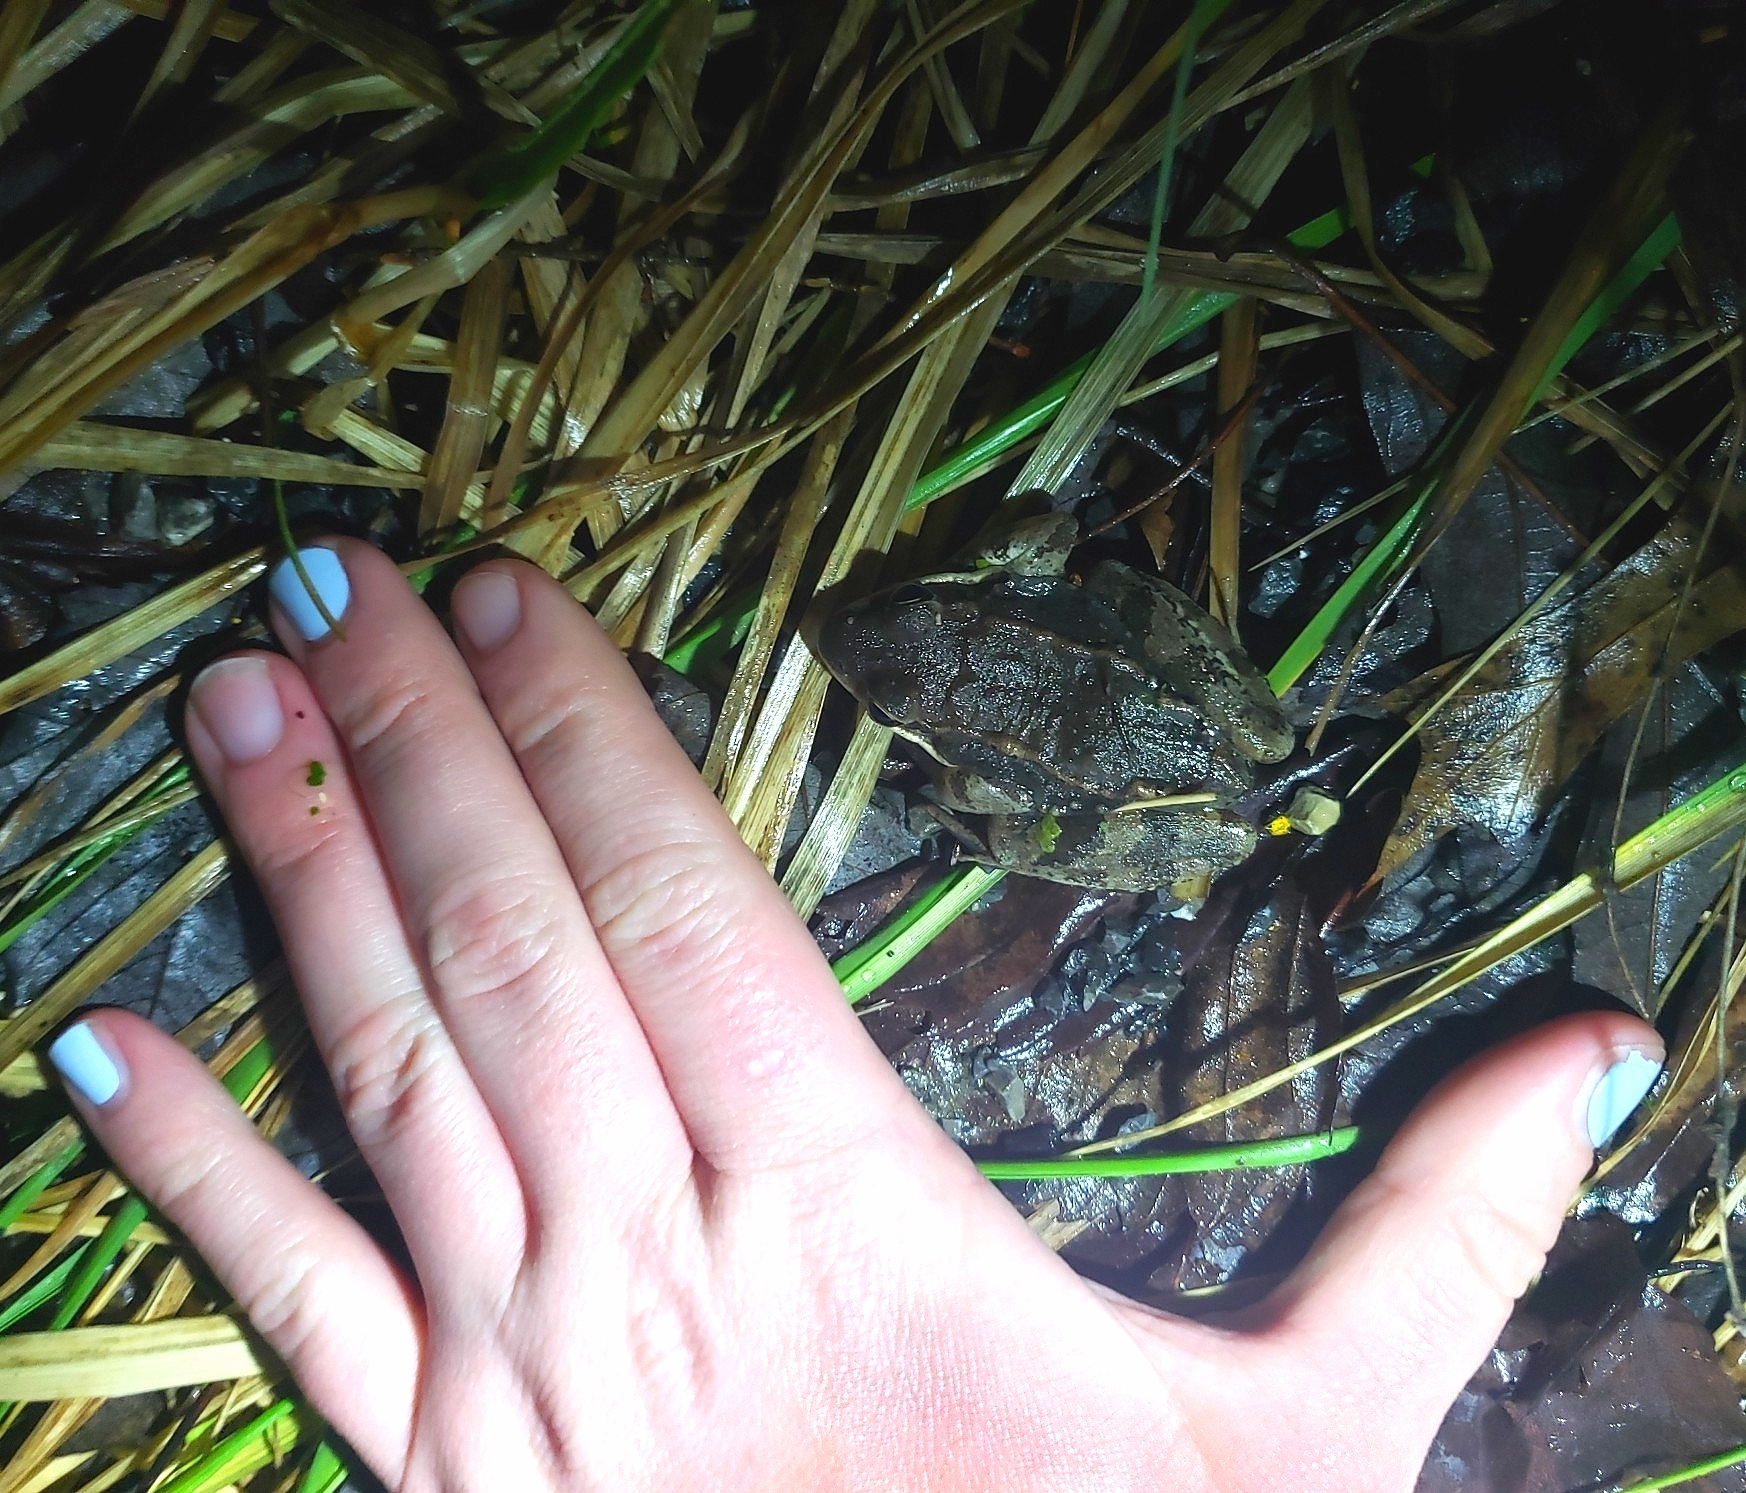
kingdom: Animalia
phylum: Chordata
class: Amphibia
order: Anura
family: Ranidae
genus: Lithobates
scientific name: Lithobates sylvaticus
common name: Wood frog
